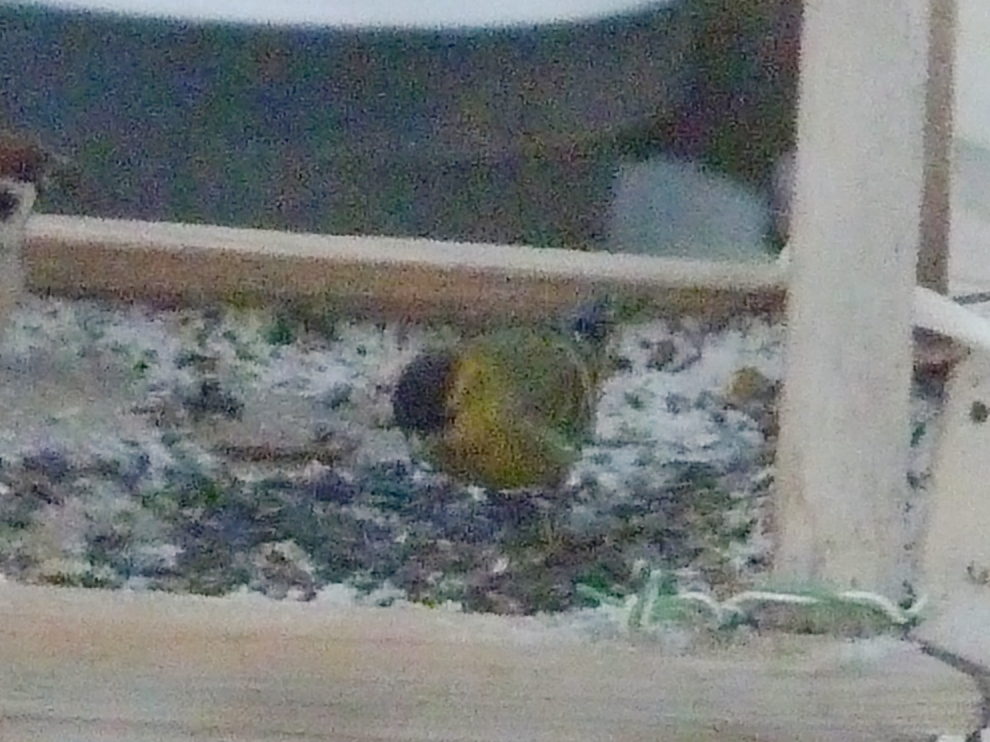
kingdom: Animalia
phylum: Chordata
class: Aves
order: Passeriformes
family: Fringillidae
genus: Spinus
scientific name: Spinus spinus
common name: Eurasian siskin
